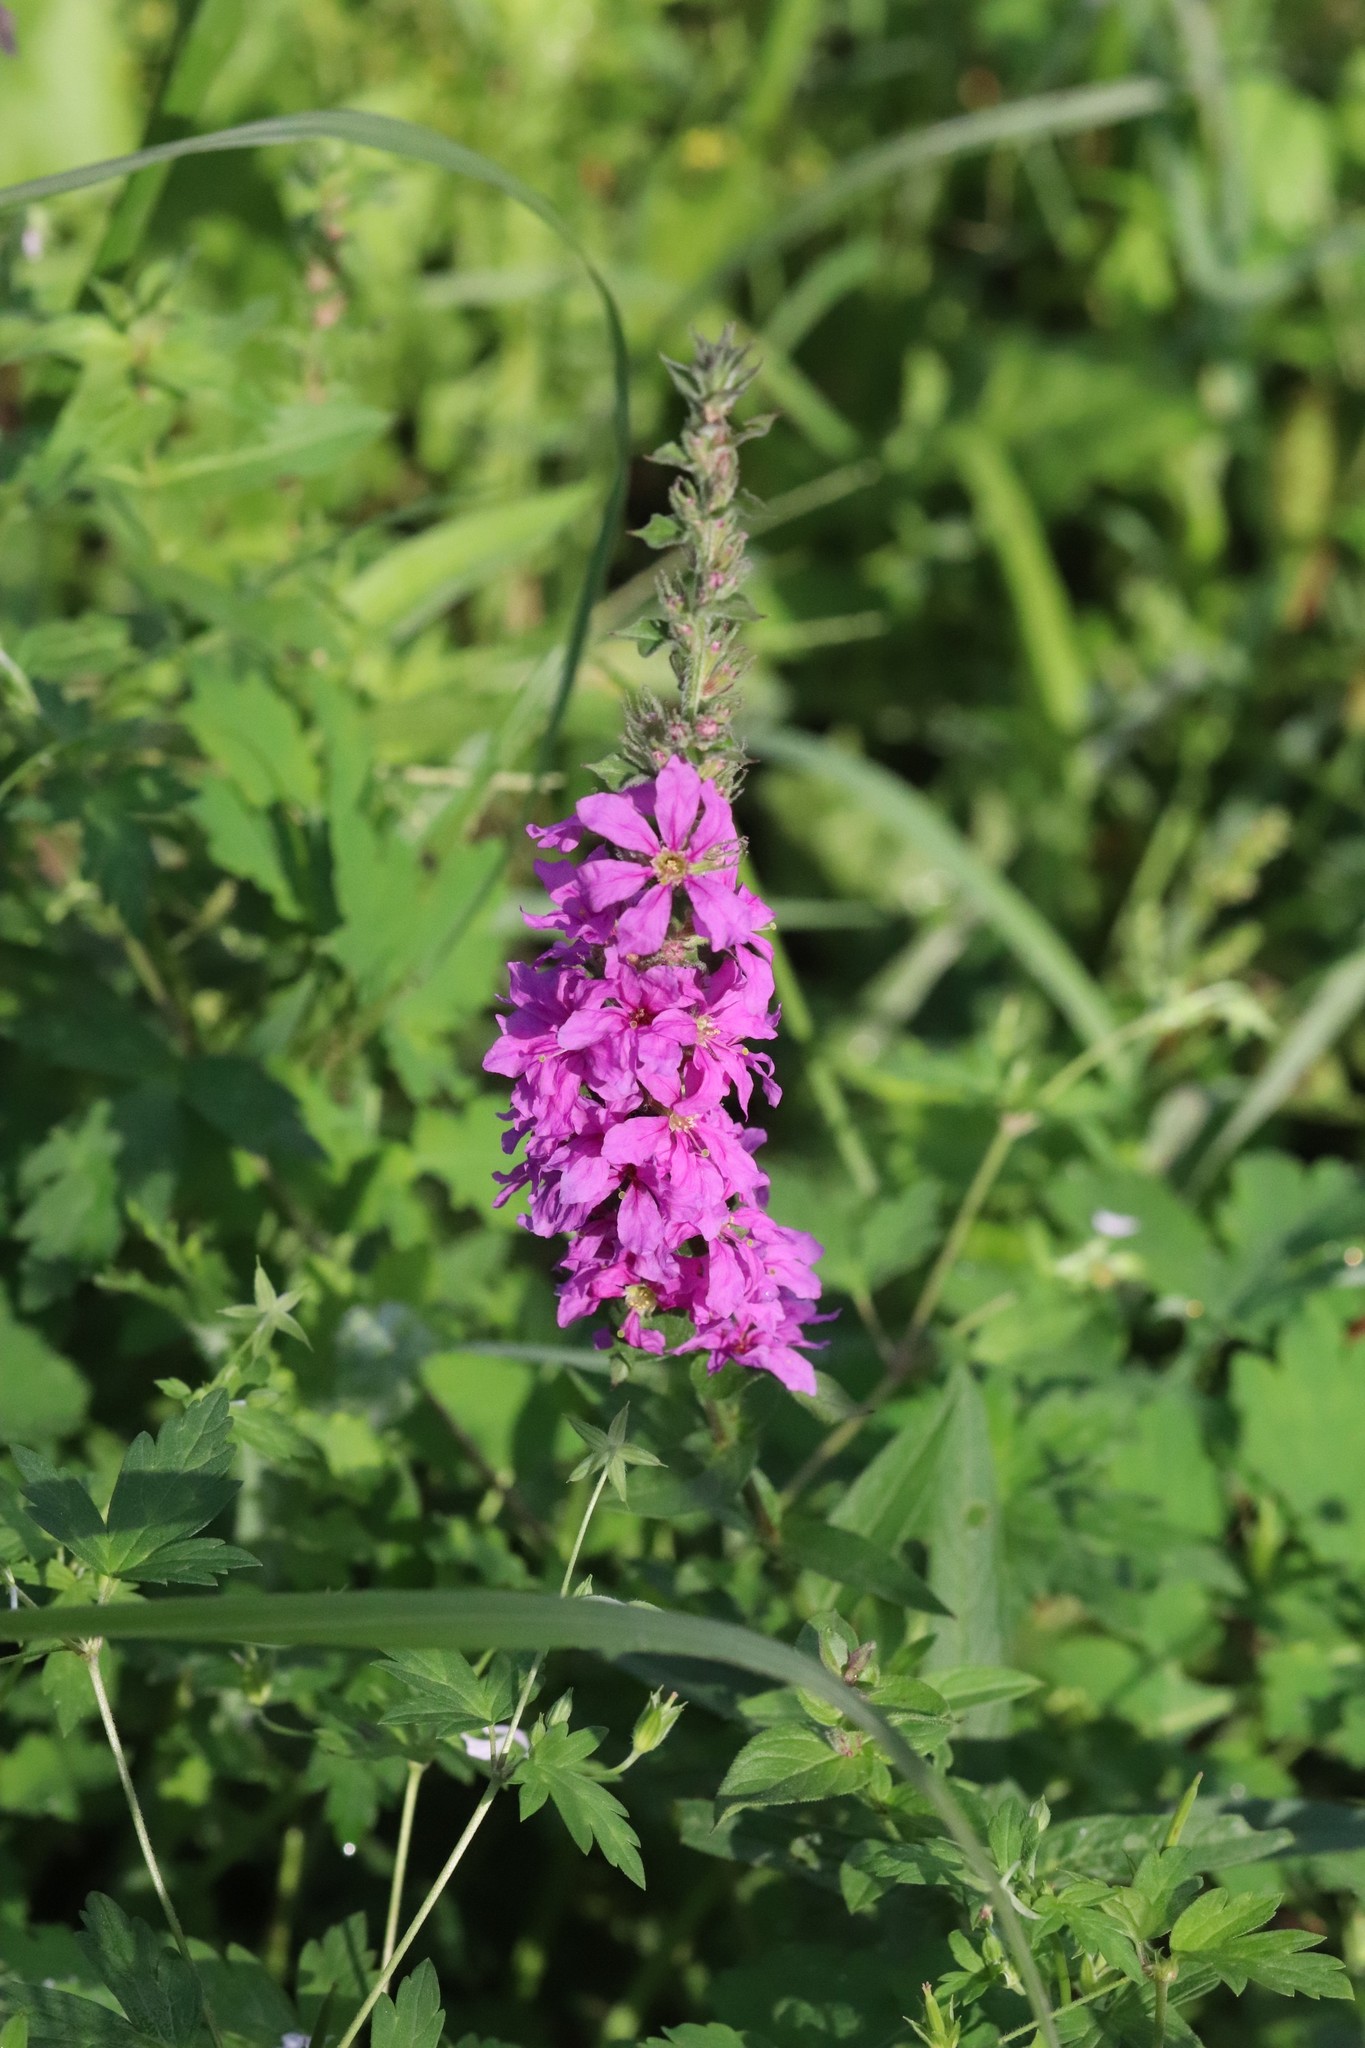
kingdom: Plantae
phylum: Tracheophyta
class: Magnoliopsida
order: Myrtales
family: Lythraceae
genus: Lythrum
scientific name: Lythrum salicaria
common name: Purple loosestrife
